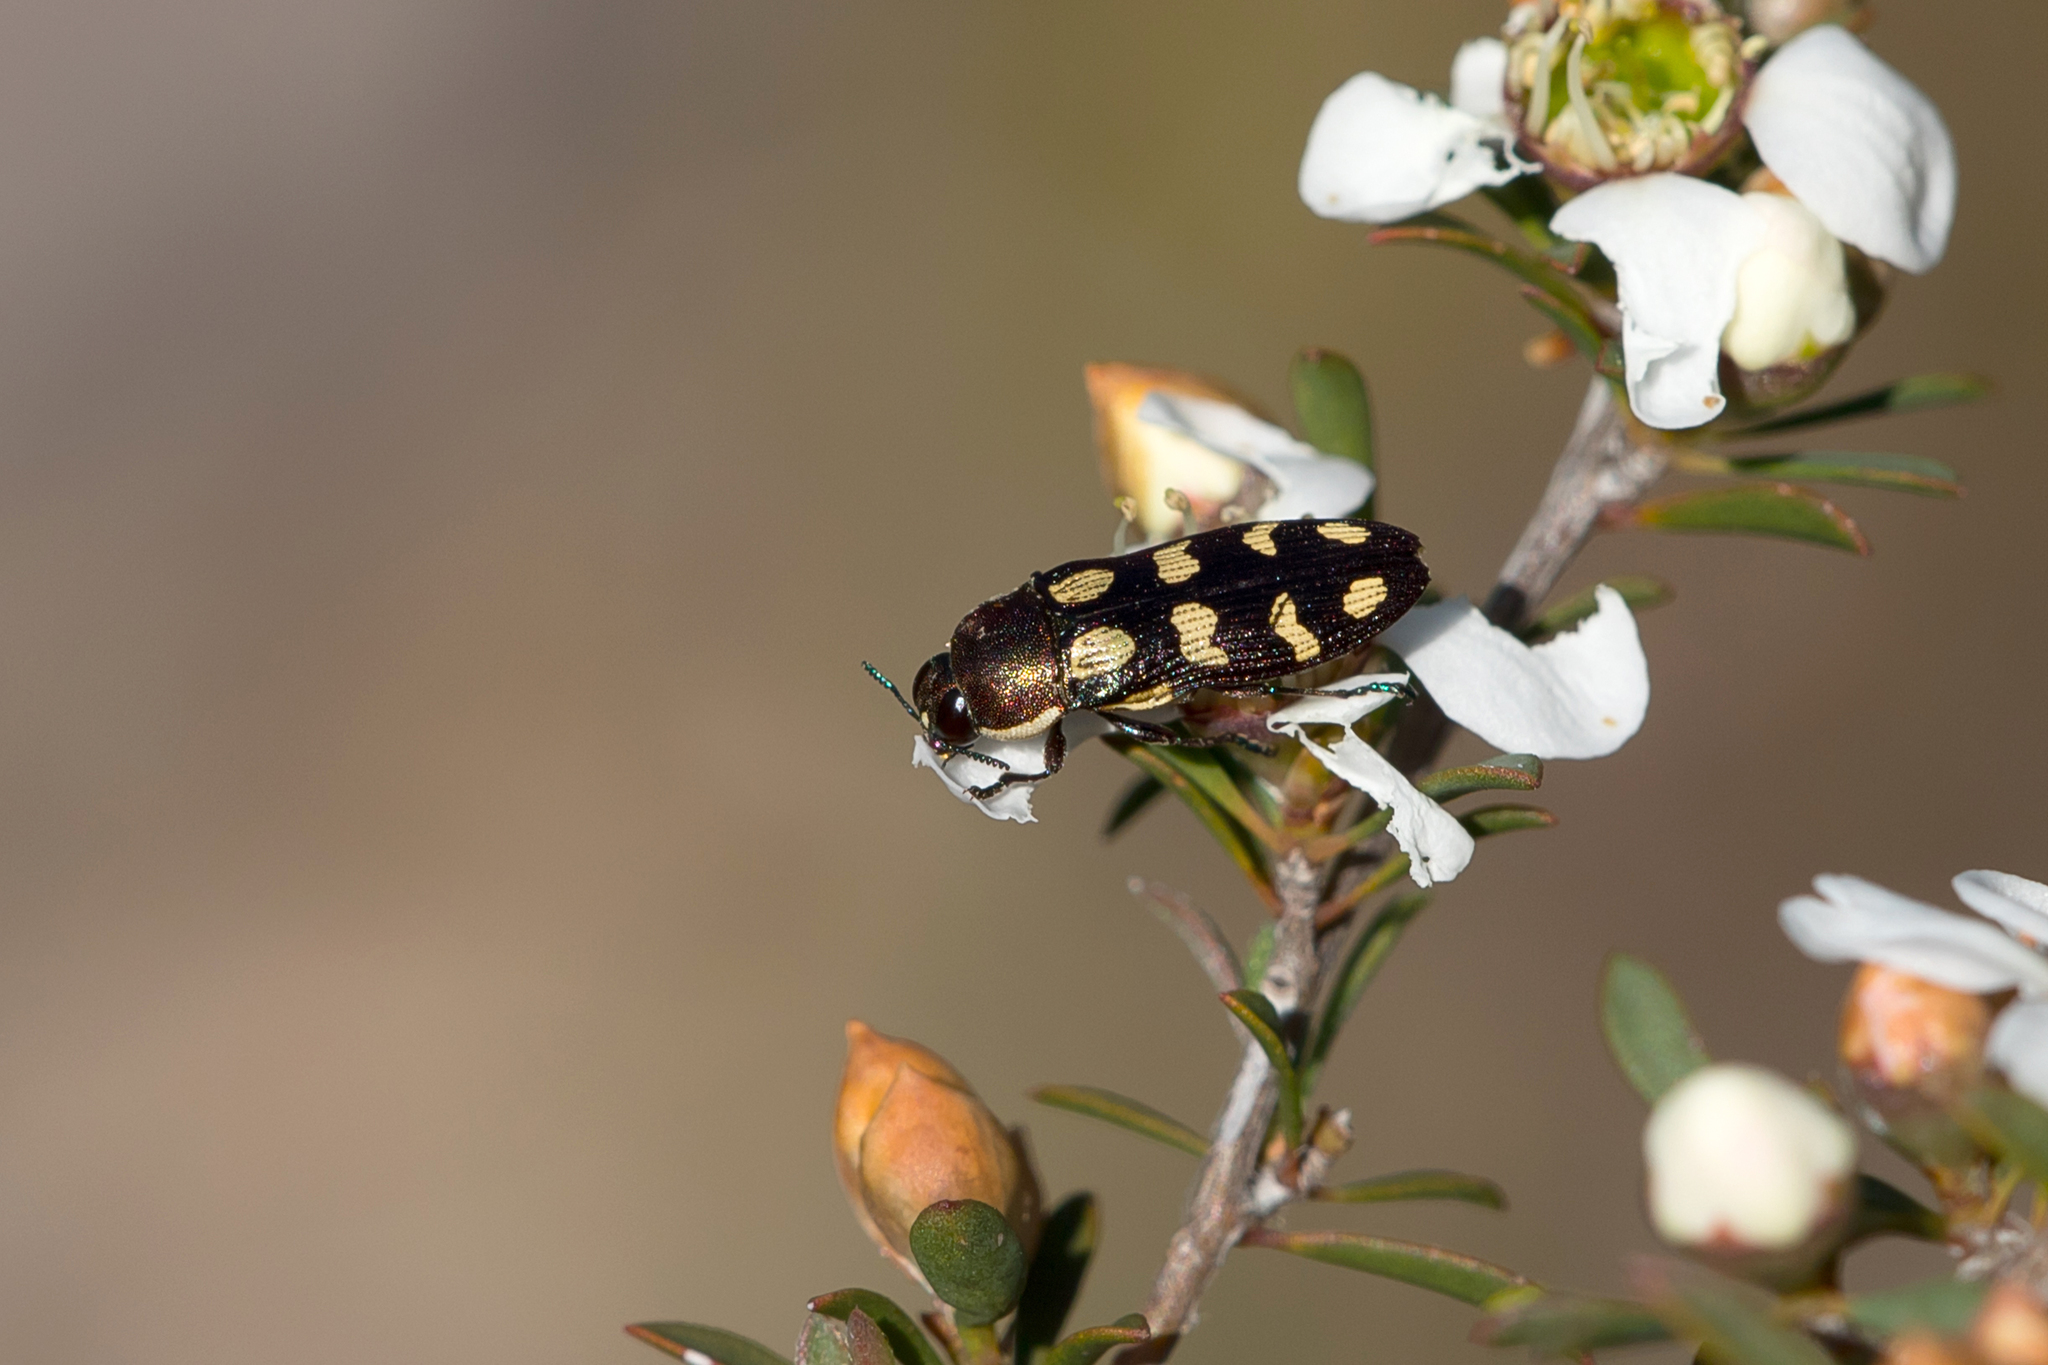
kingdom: Animalia
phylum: Arthropoda
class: Insecta
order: Coleoptera
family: Buprestidae
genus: Castiarina
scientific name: Castiarina decemmaculata
